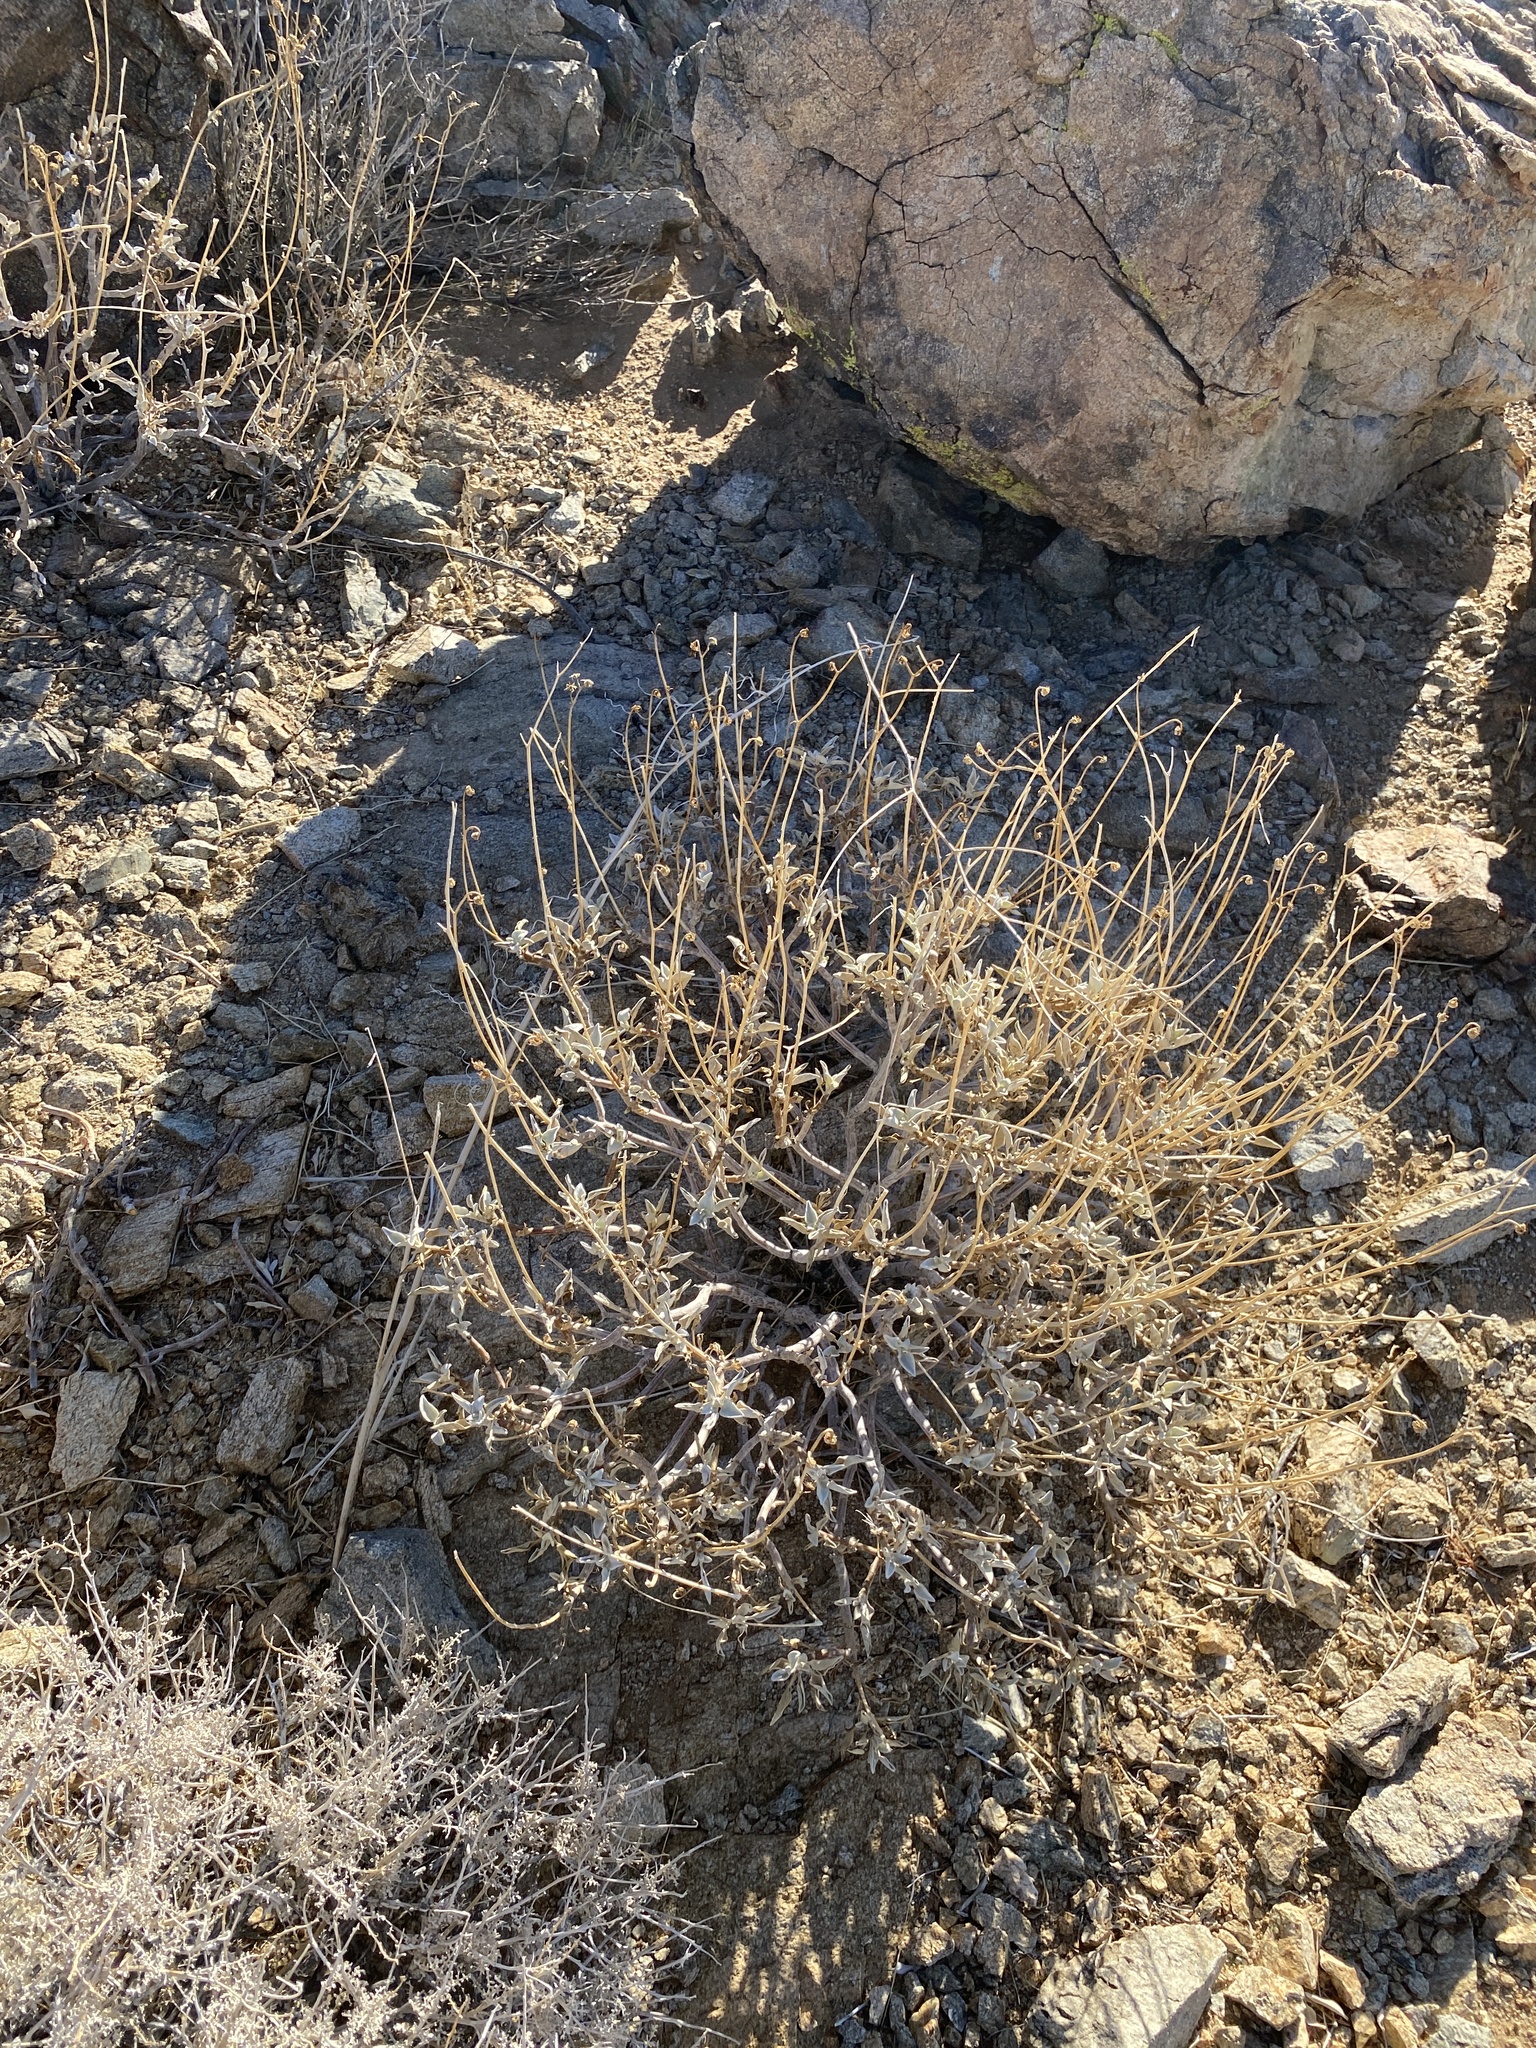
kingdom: Plantae
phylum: Tracheophyta
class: Magnoliopsida
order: Asterales
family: Asteraceae
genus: Encelia
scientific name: Encelia farinosa
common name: Brittlebush
